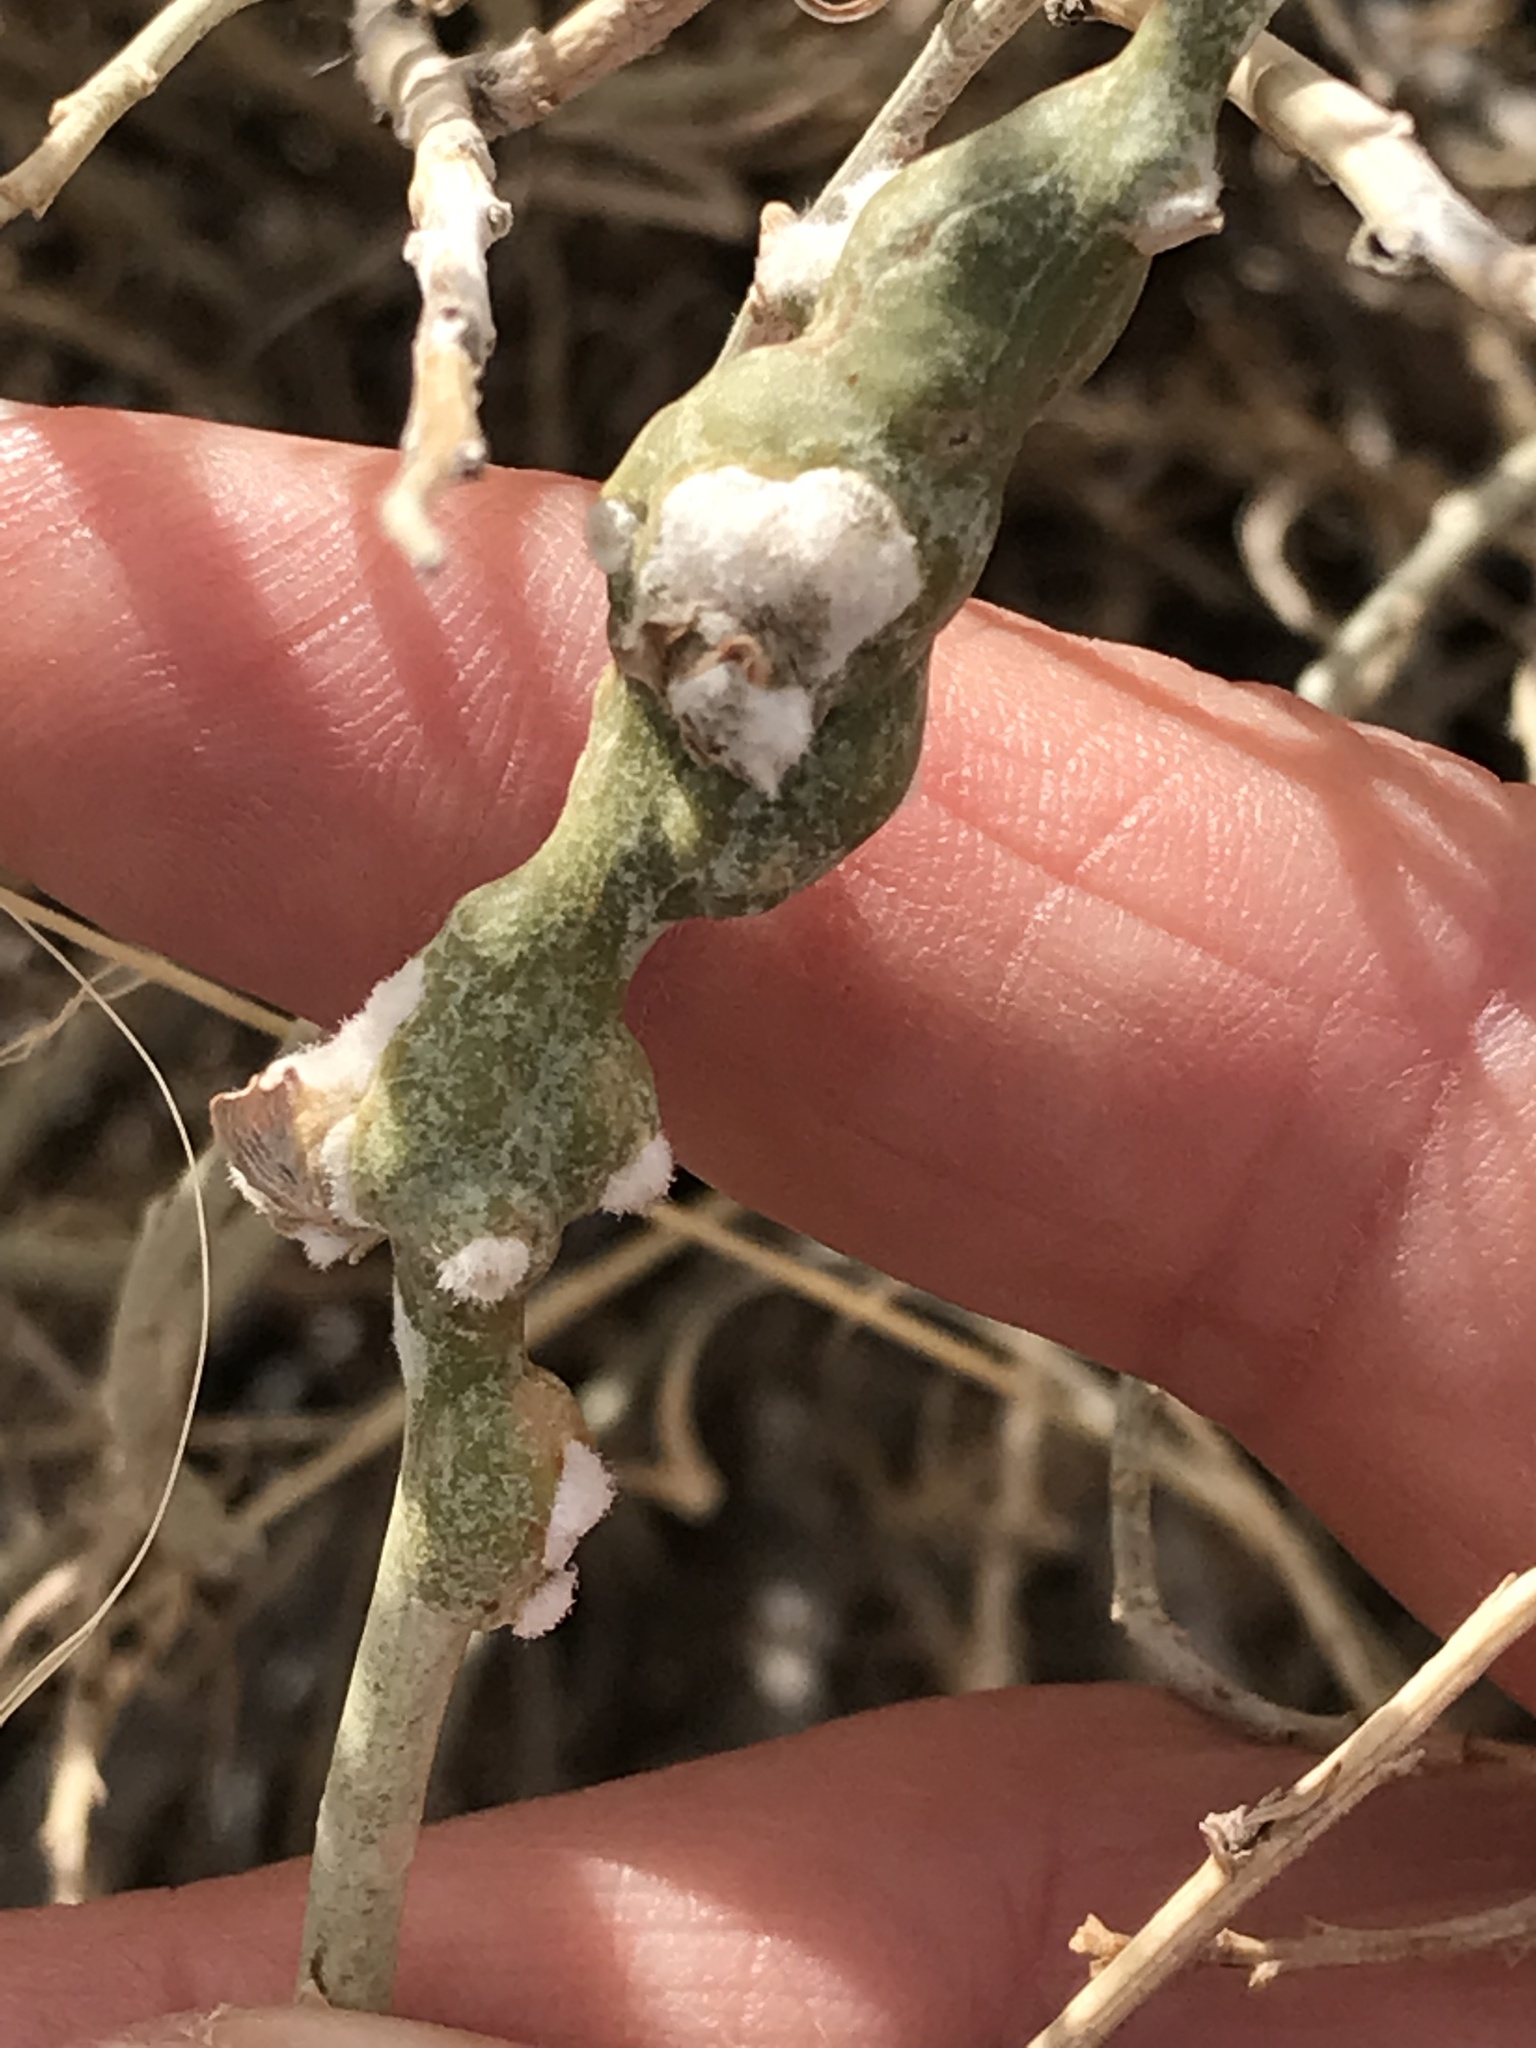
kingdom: Animalia
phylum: Arthropoda
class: Insecta
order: Diptera
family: Cecidomyiidae
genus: Rhopalomyia
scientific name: Rhopalomyia chrysothamni
